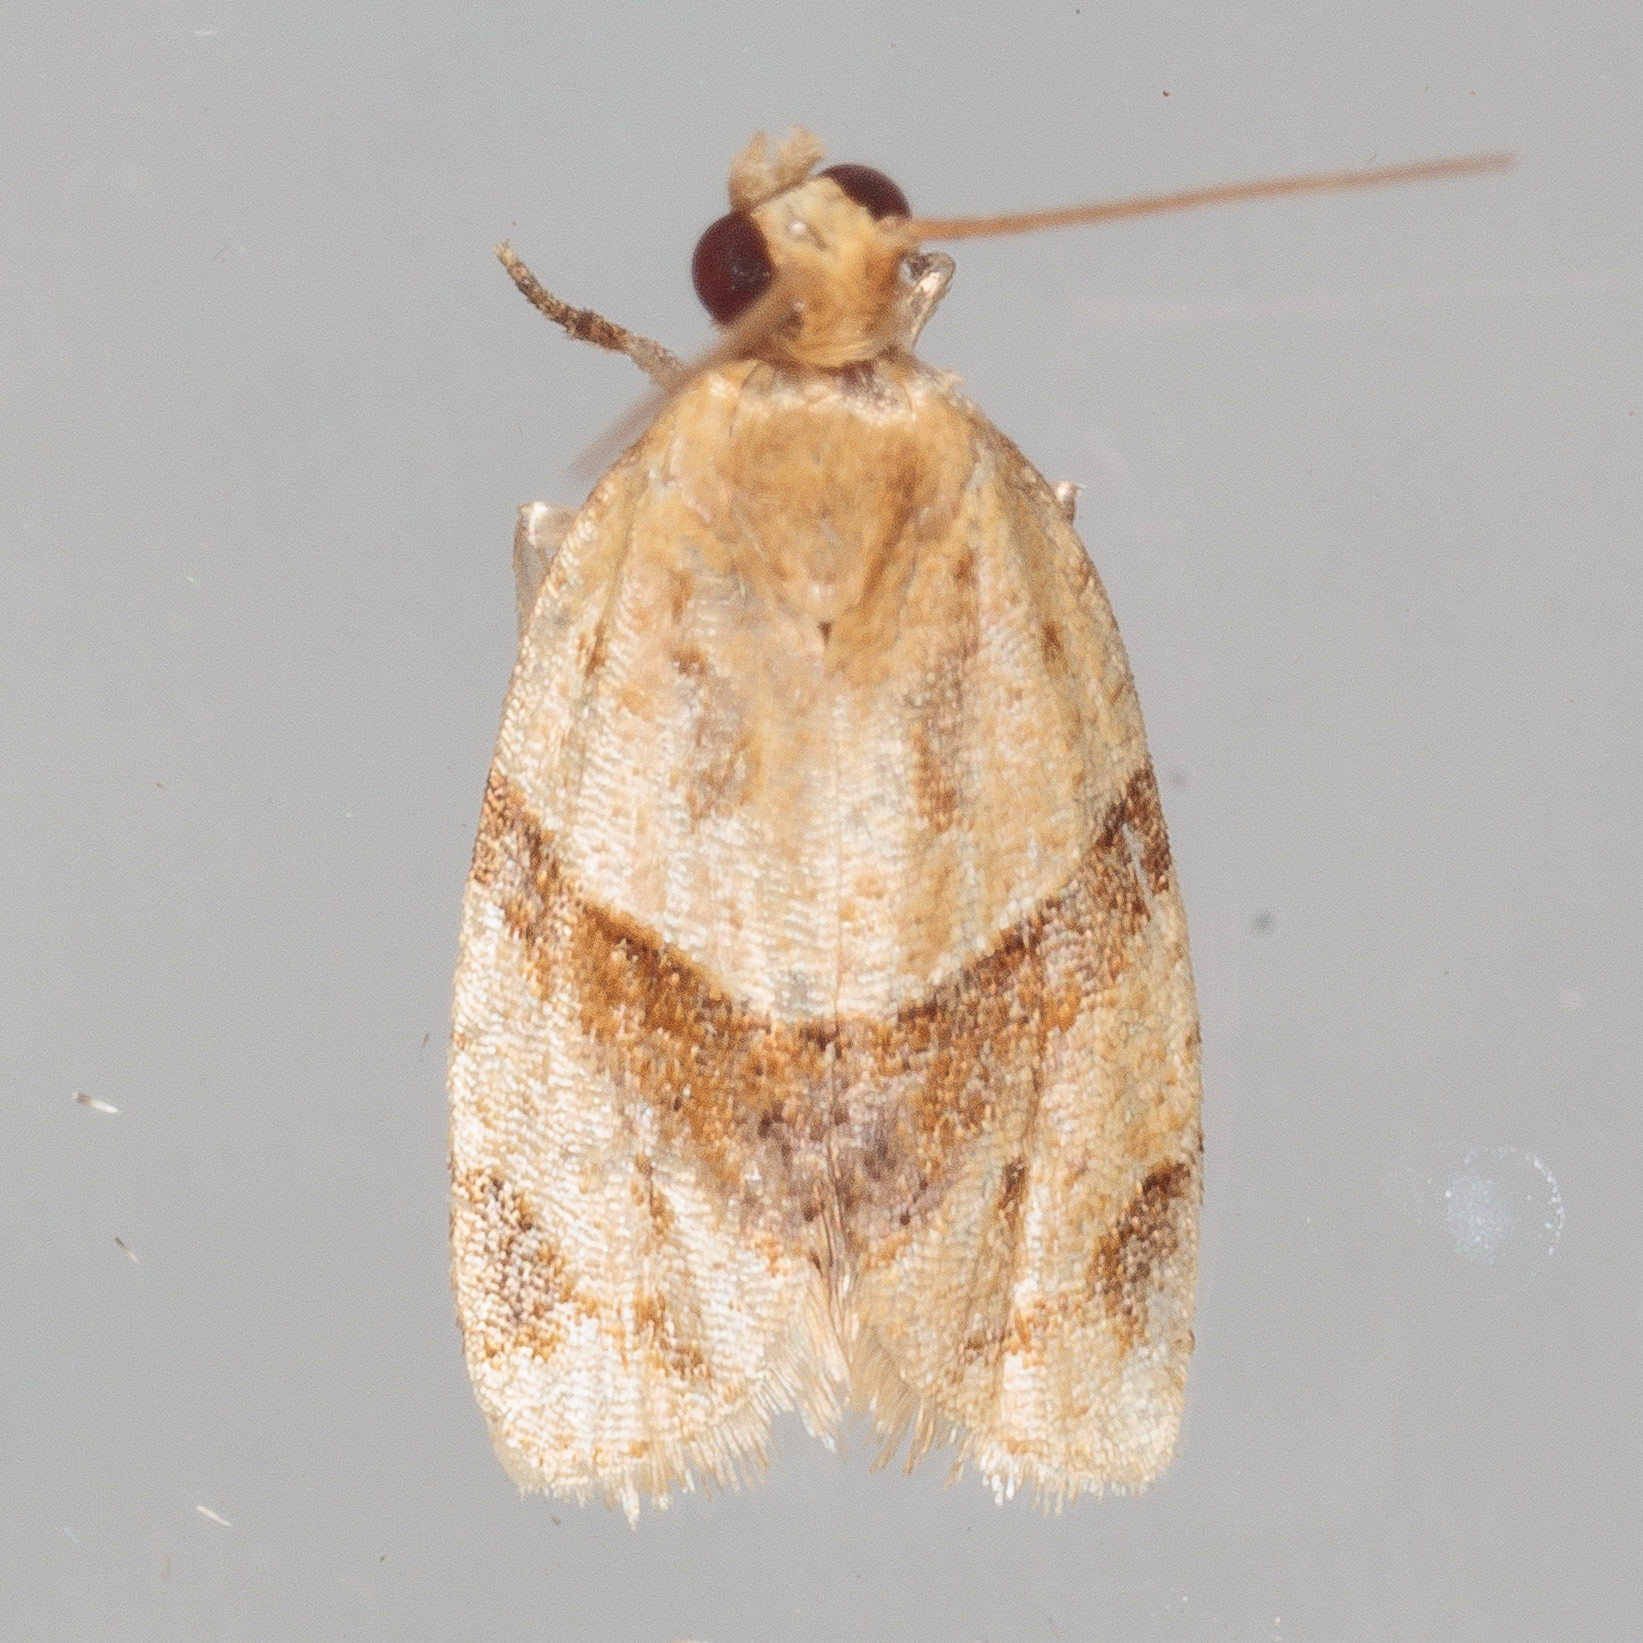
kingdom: Animalia
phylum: Arthropoda
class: Insecta
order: Lepidoptera
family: Tortricidae
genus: Clepsis
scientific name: Clepsis peritana
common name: Garden tortrix
